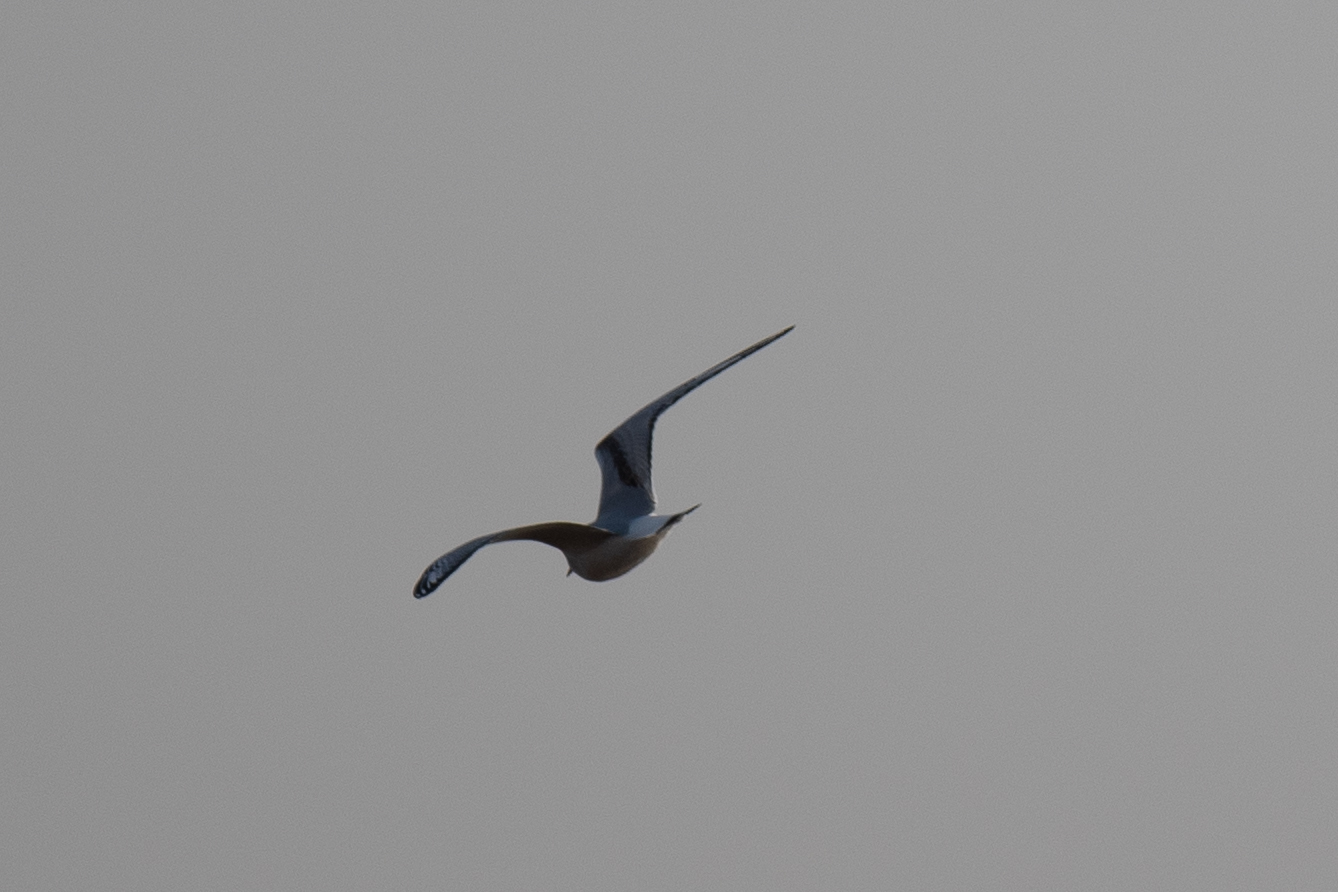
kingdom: Animalia
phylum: Chordata
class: Aves
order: Charadriiformes
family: Laridae
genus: Chroicocephalus
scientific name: Chroicocephalus philadelphia
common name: Bonaparte's gull
